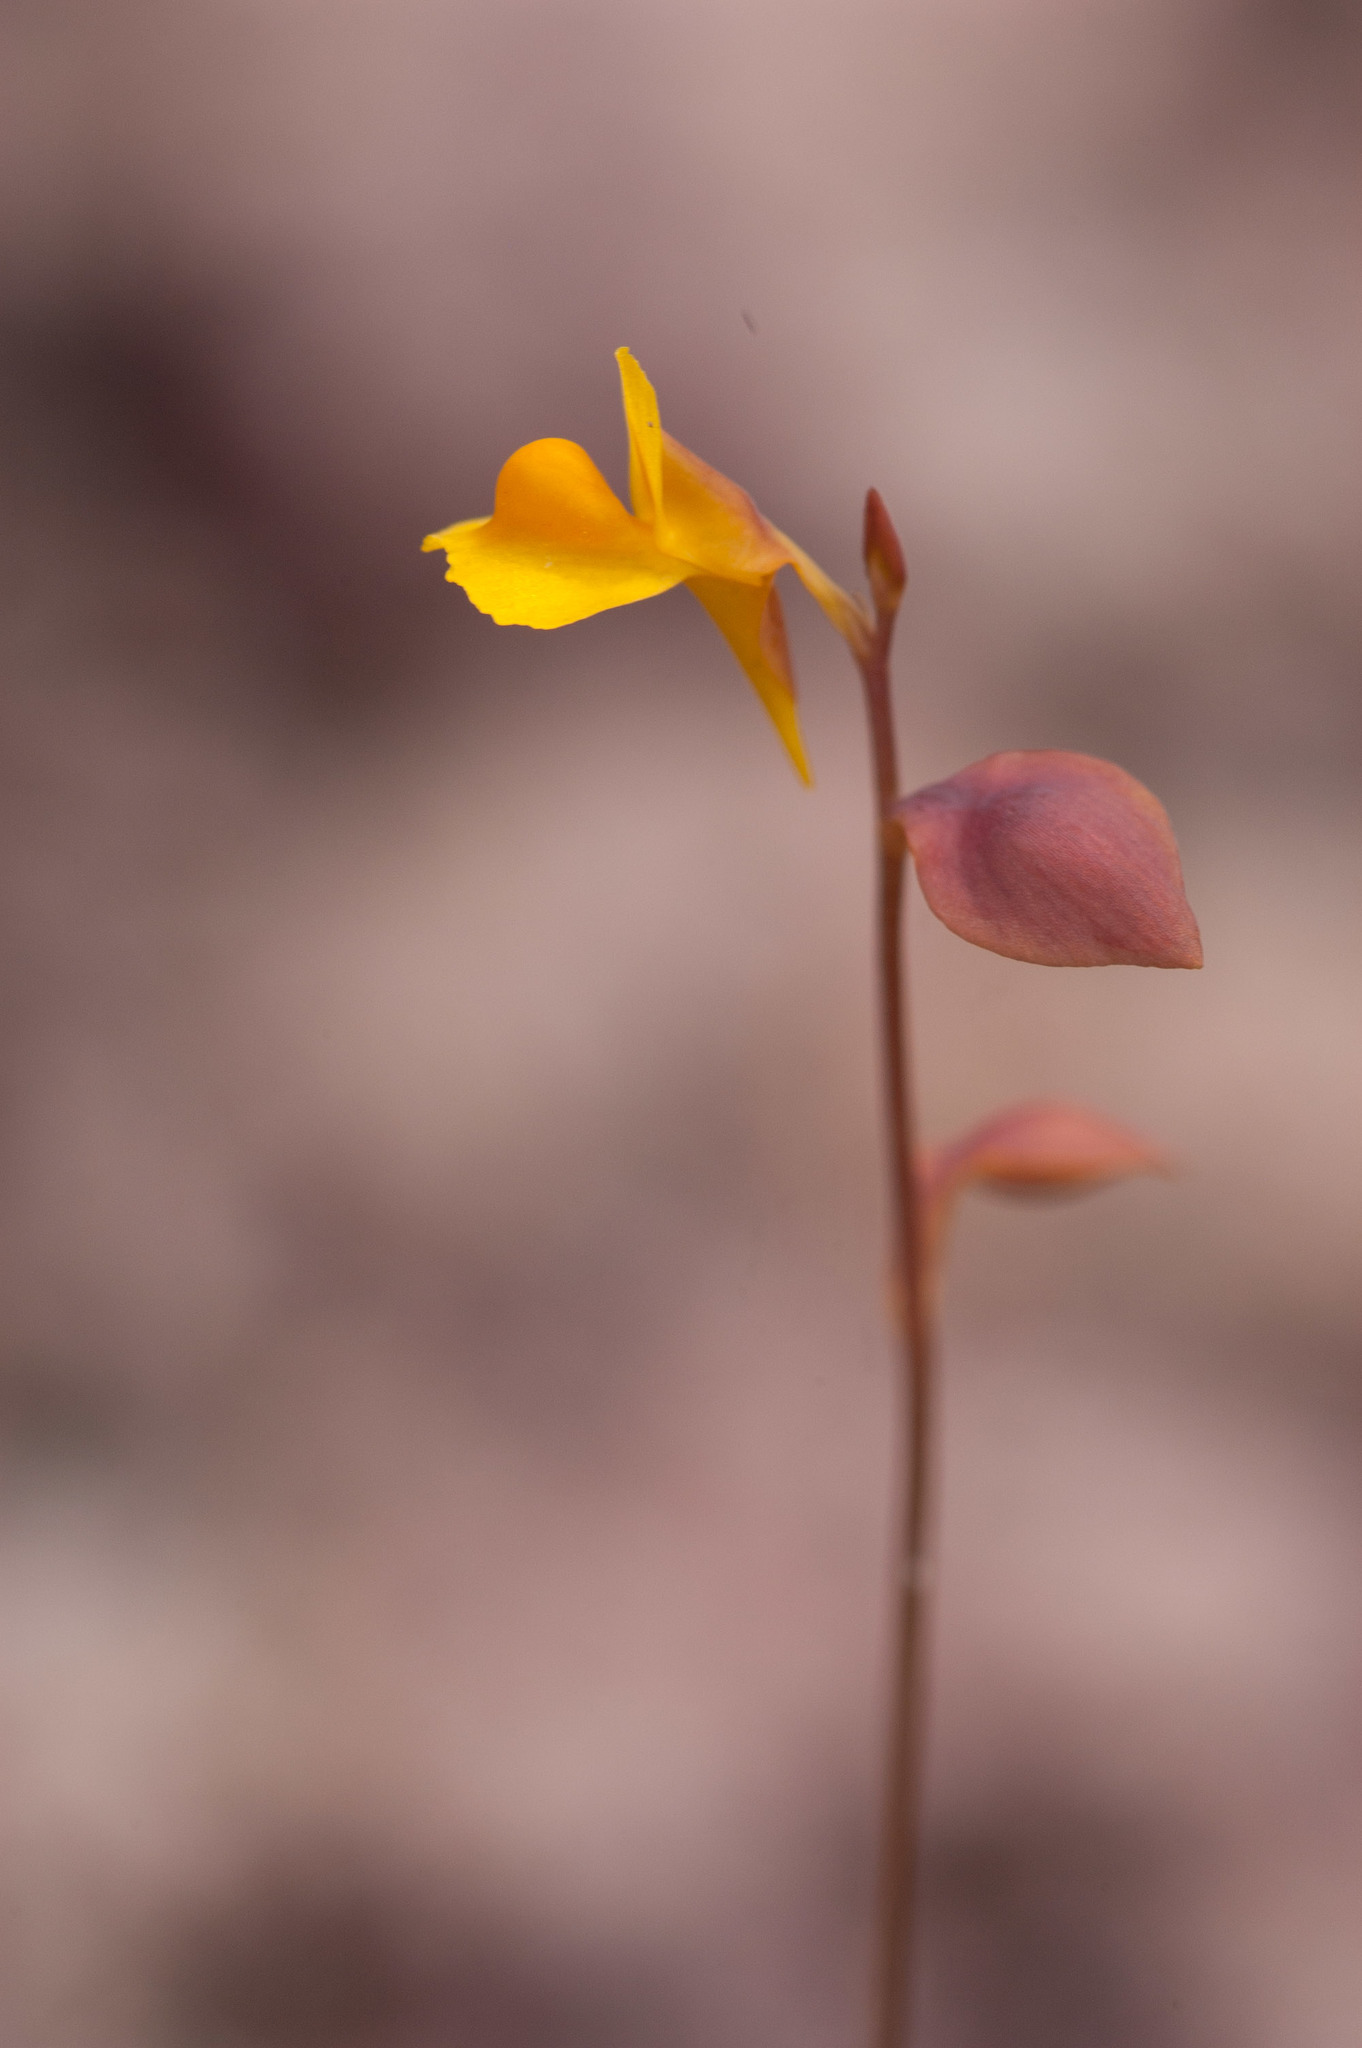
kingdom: Plantae
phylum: Tracheophyta
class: Magnoliopsida
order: Lamiales
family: Lentibulariaceae
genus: Utricularia
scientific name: Utricularia bifida
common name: Bifid bladderwort
